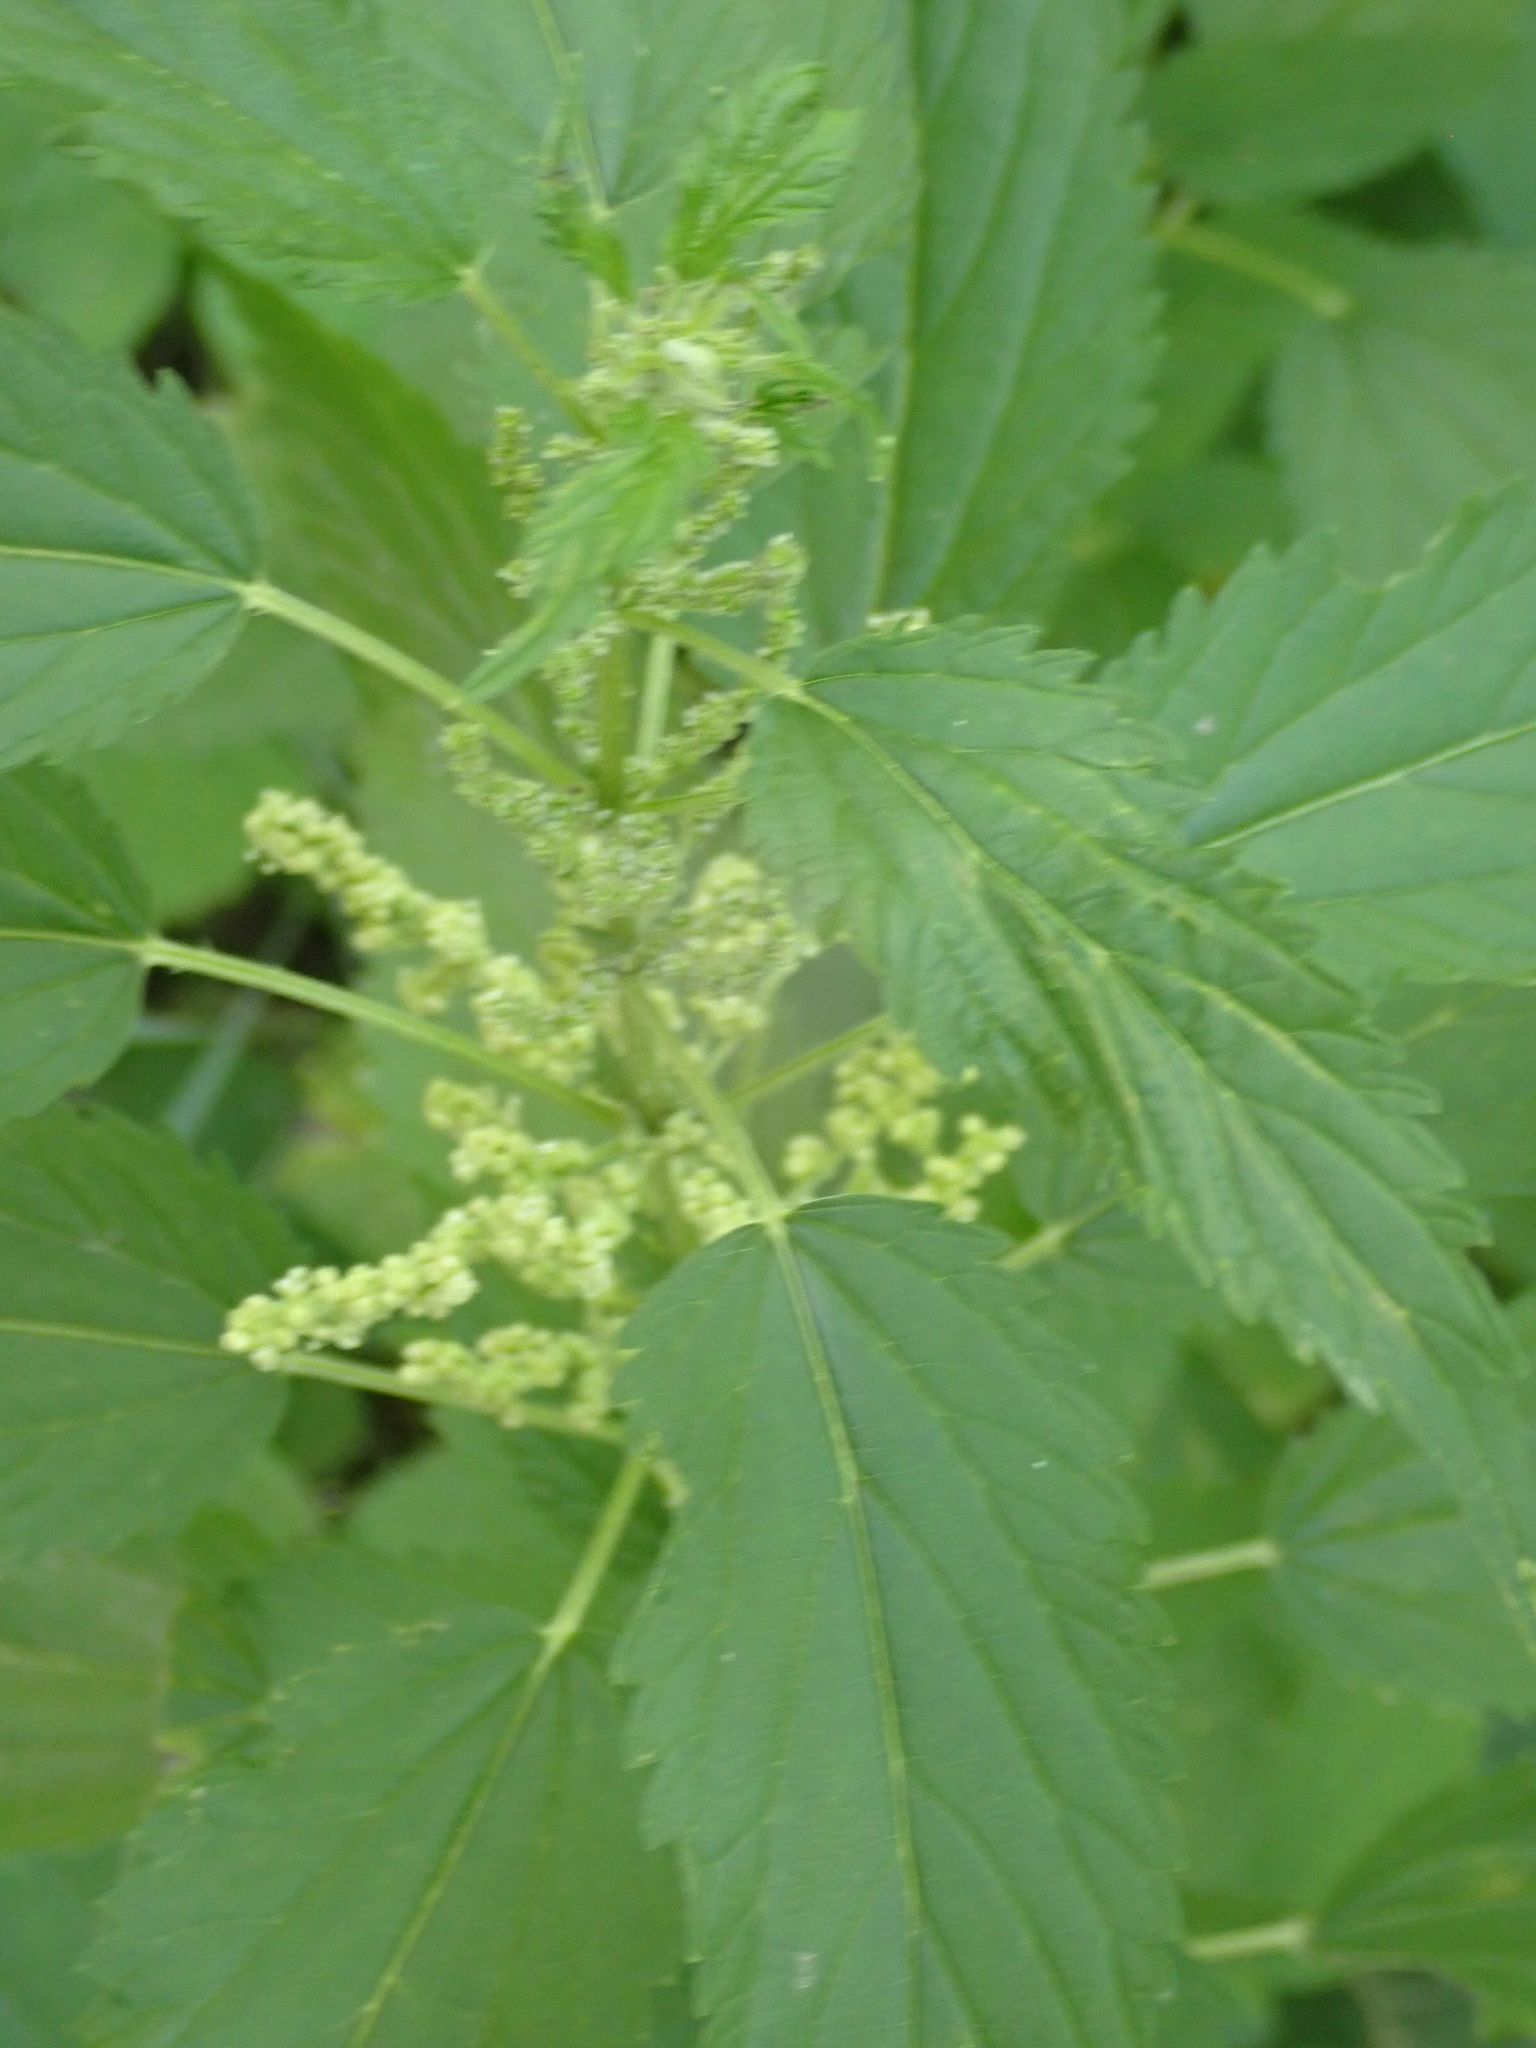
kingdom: Plantae
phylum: Tracheophyta
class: Magnoliopsida
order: Rosales
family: Urticaceae
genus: Urtica
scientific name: Urtica gracilis
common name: Slender stinging nettle
